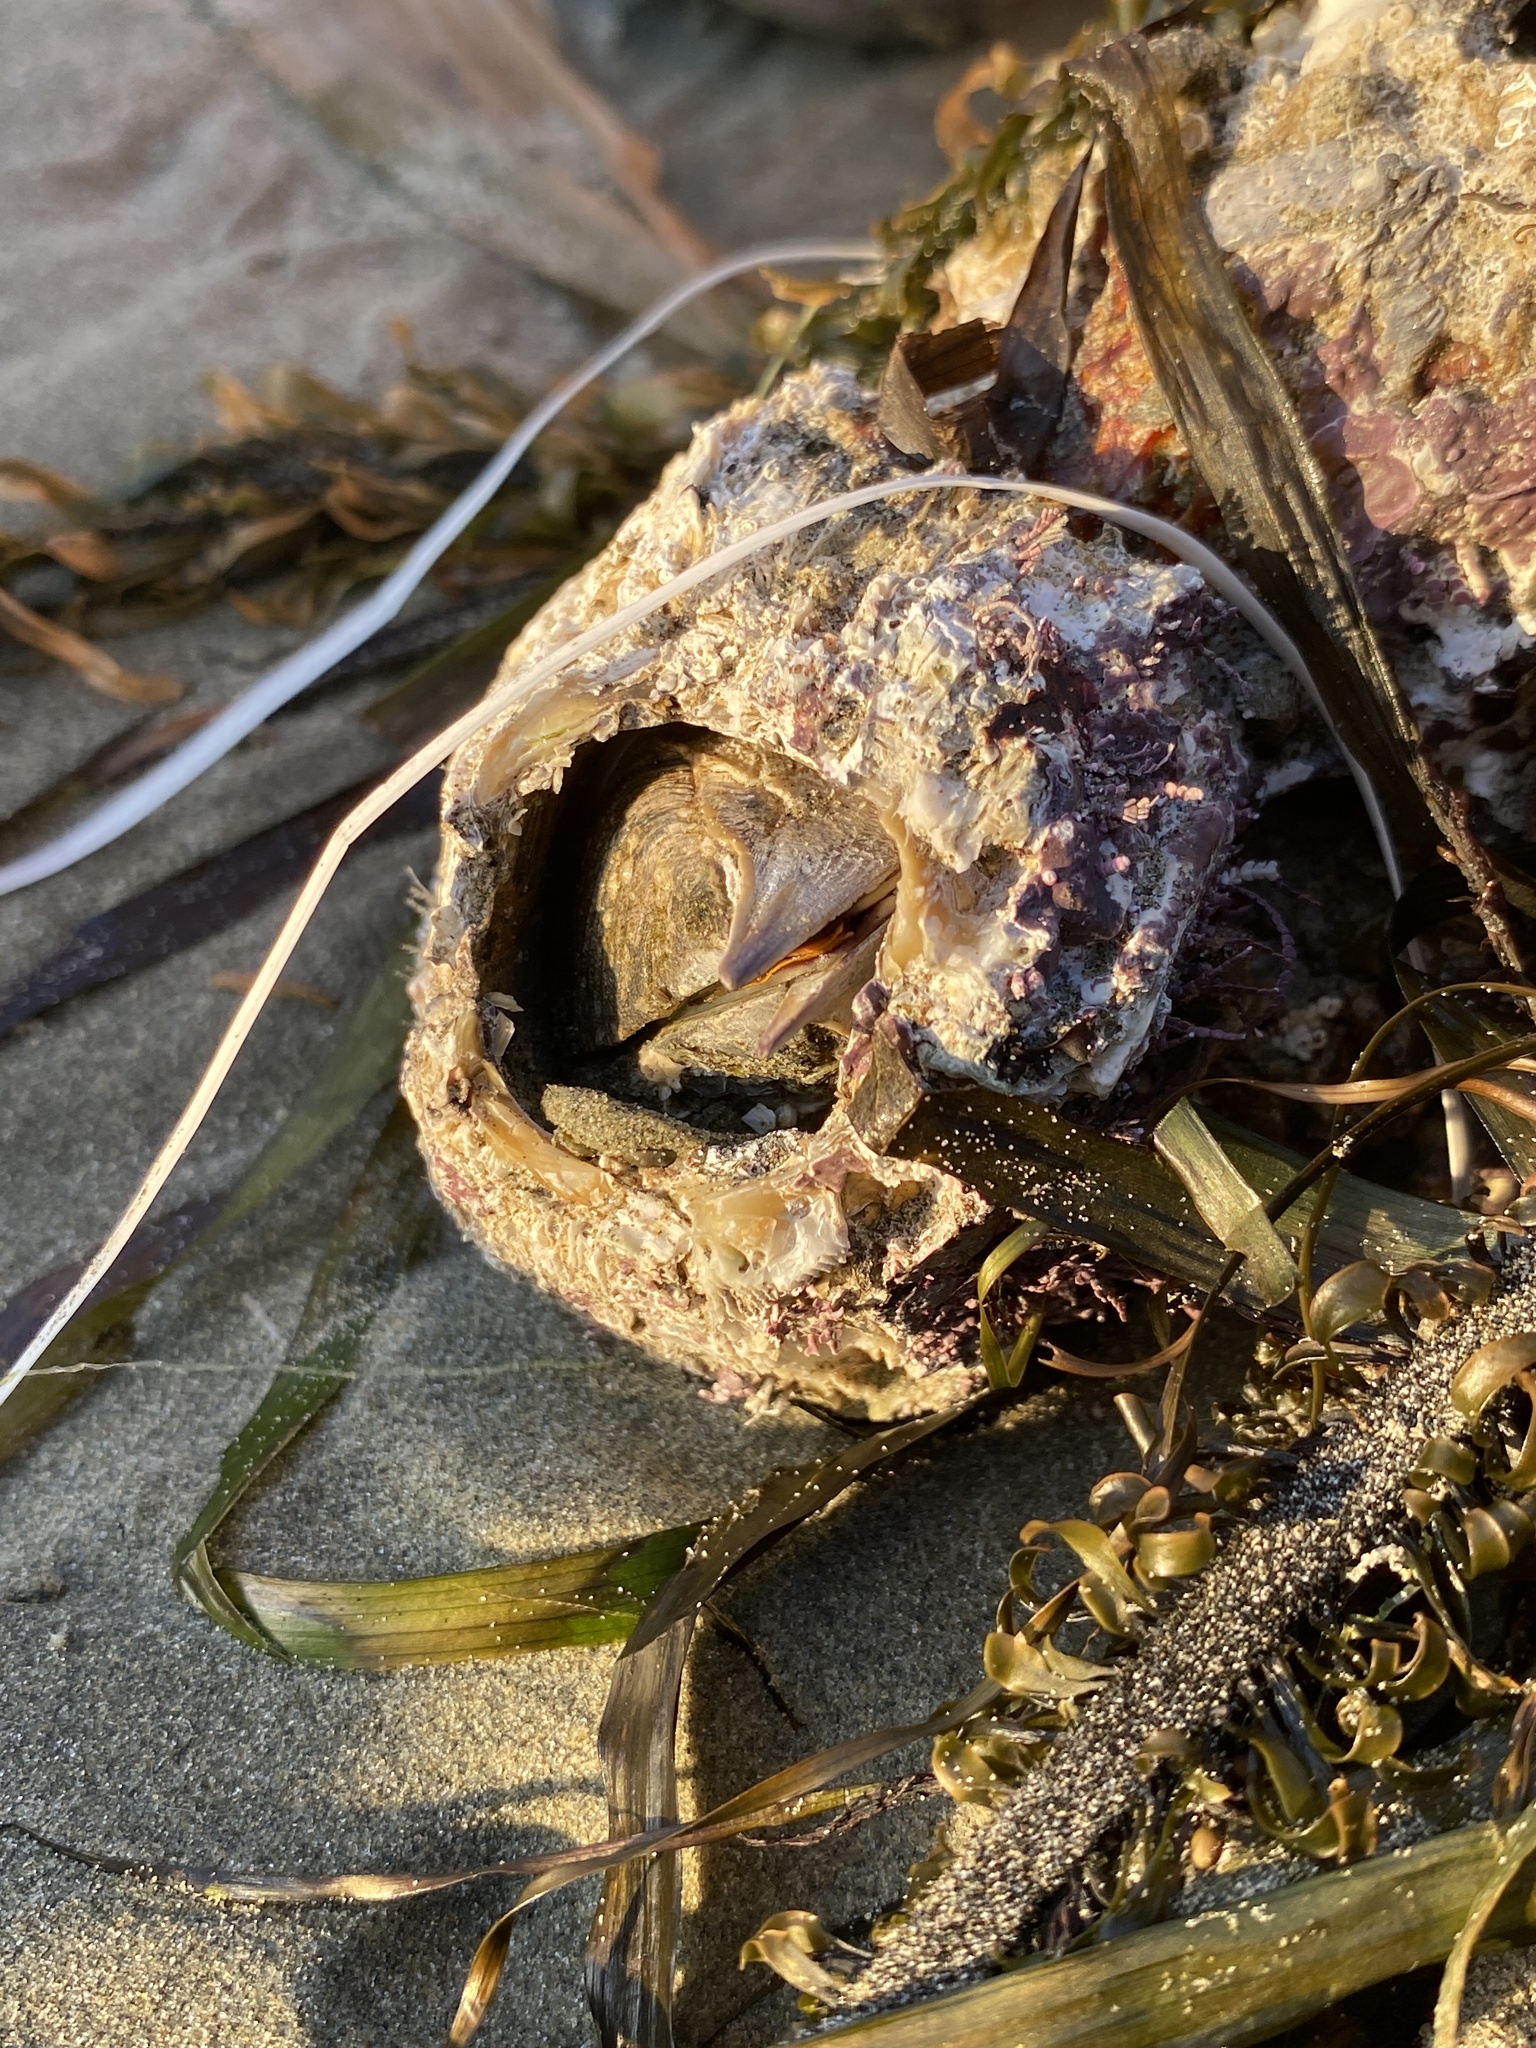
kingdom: Animalia
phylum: Arthropoda
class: Maxillopoda
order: Sessilia
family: Balanidae
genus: Balanus
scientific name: Balanus nubilus
